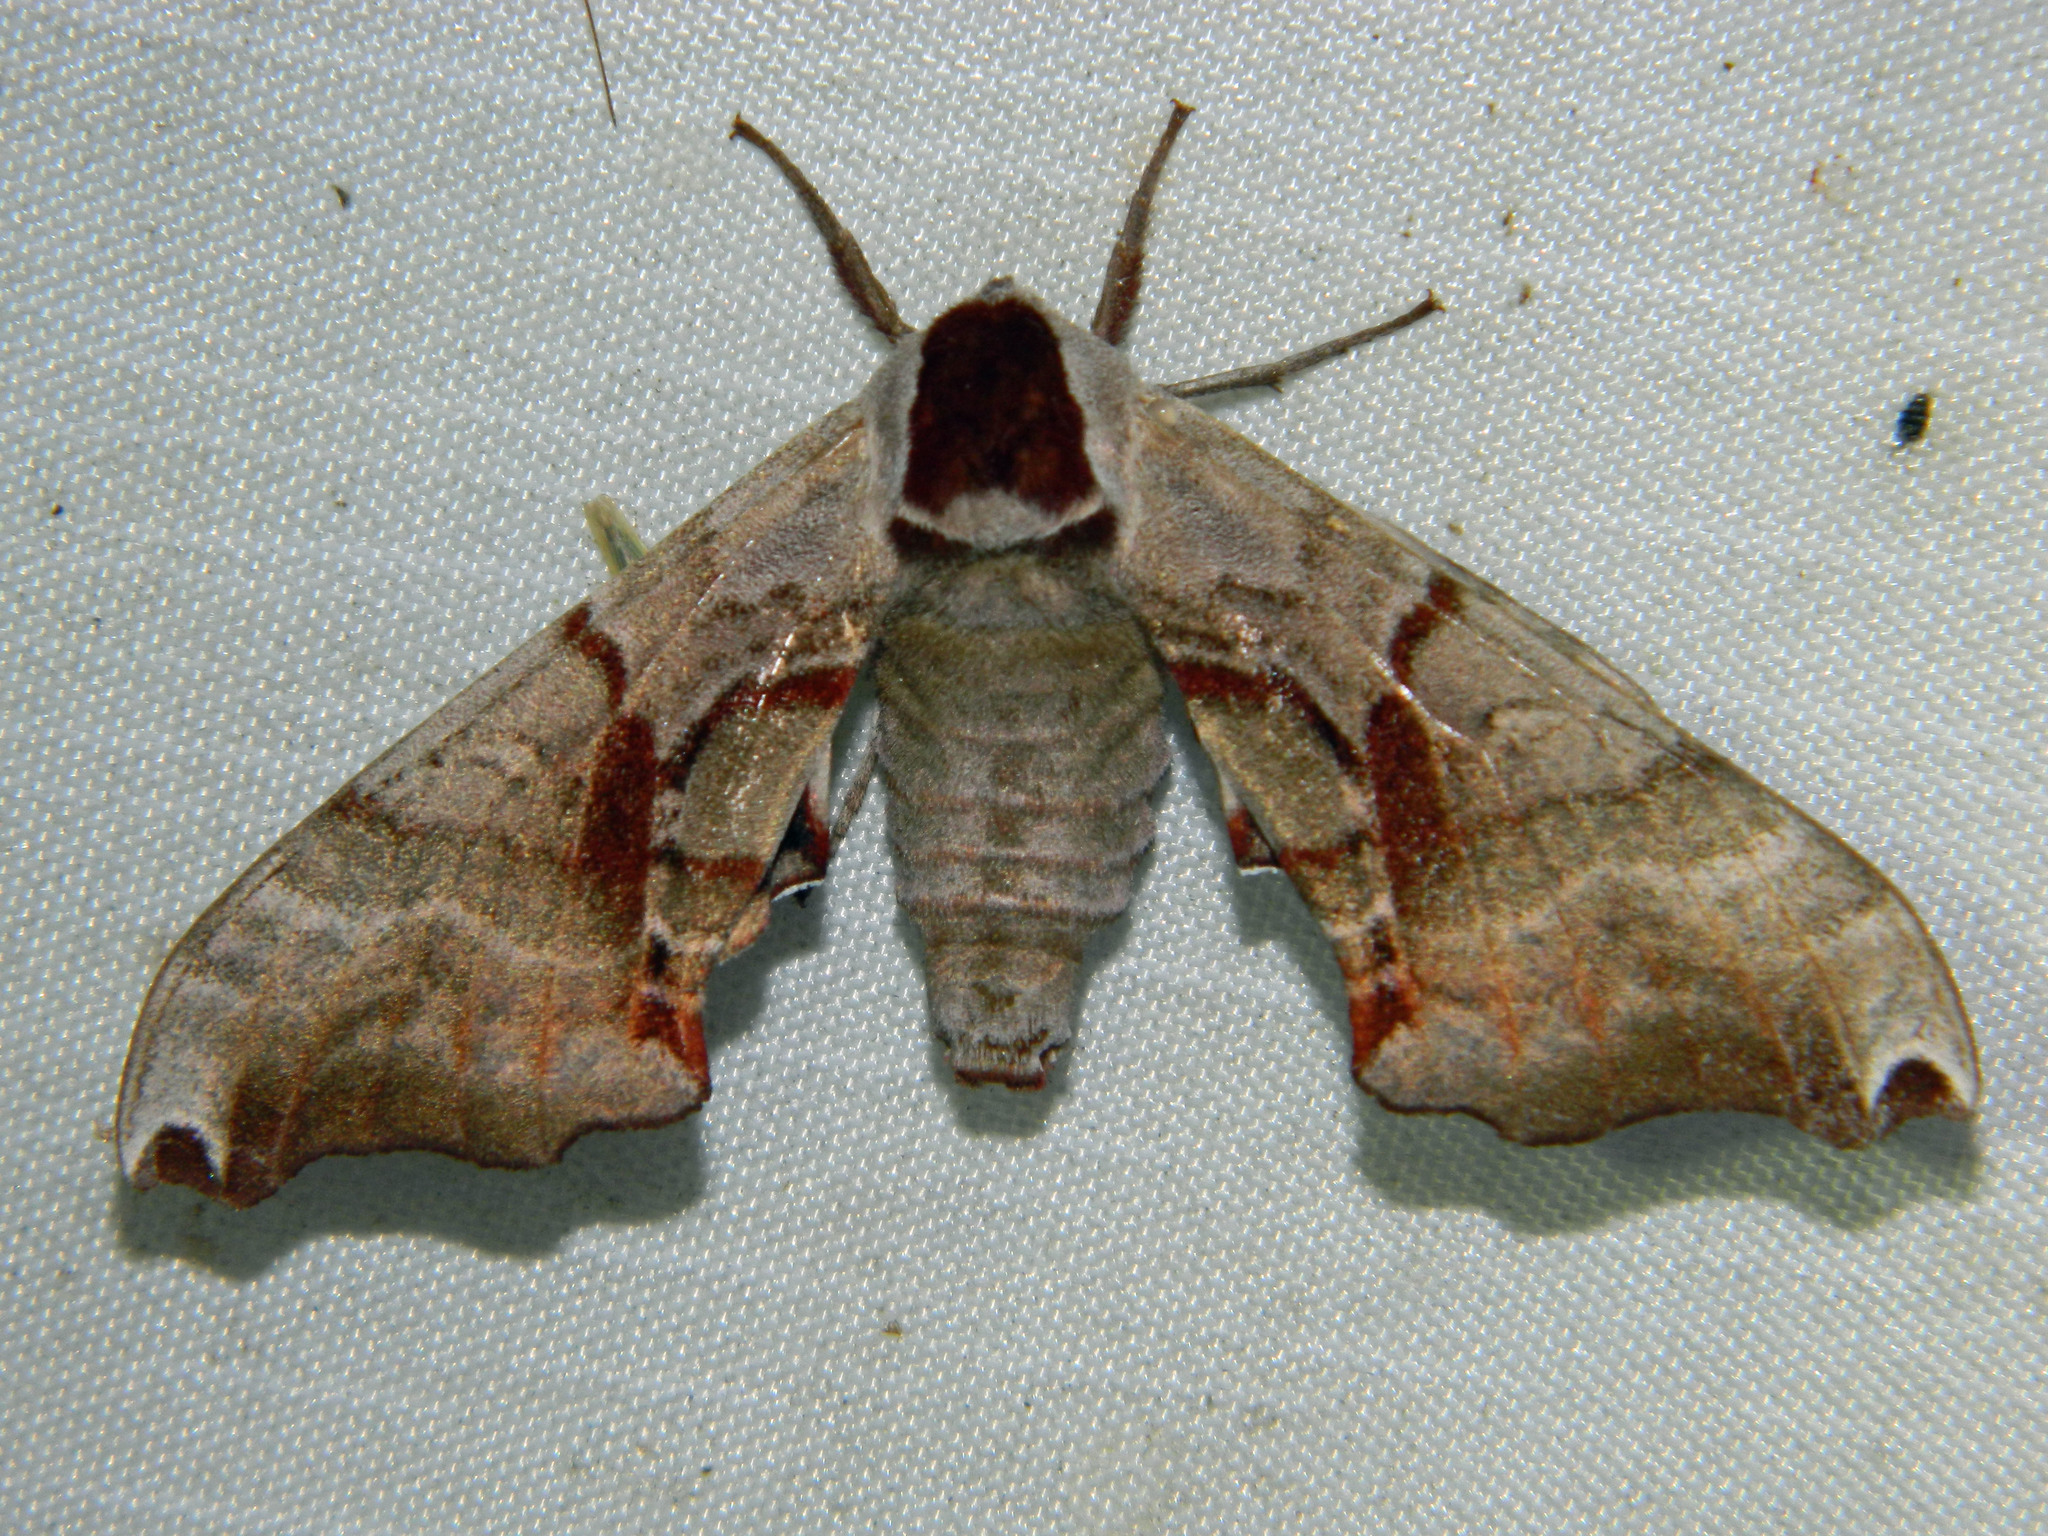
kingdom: Animalia
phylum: Arthropoda
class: Insecta
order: Lepidoptera
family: Sphingidae
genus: Smerinthus
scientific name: Smerinthus jamaicensis
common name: Twin spotted sphinx
